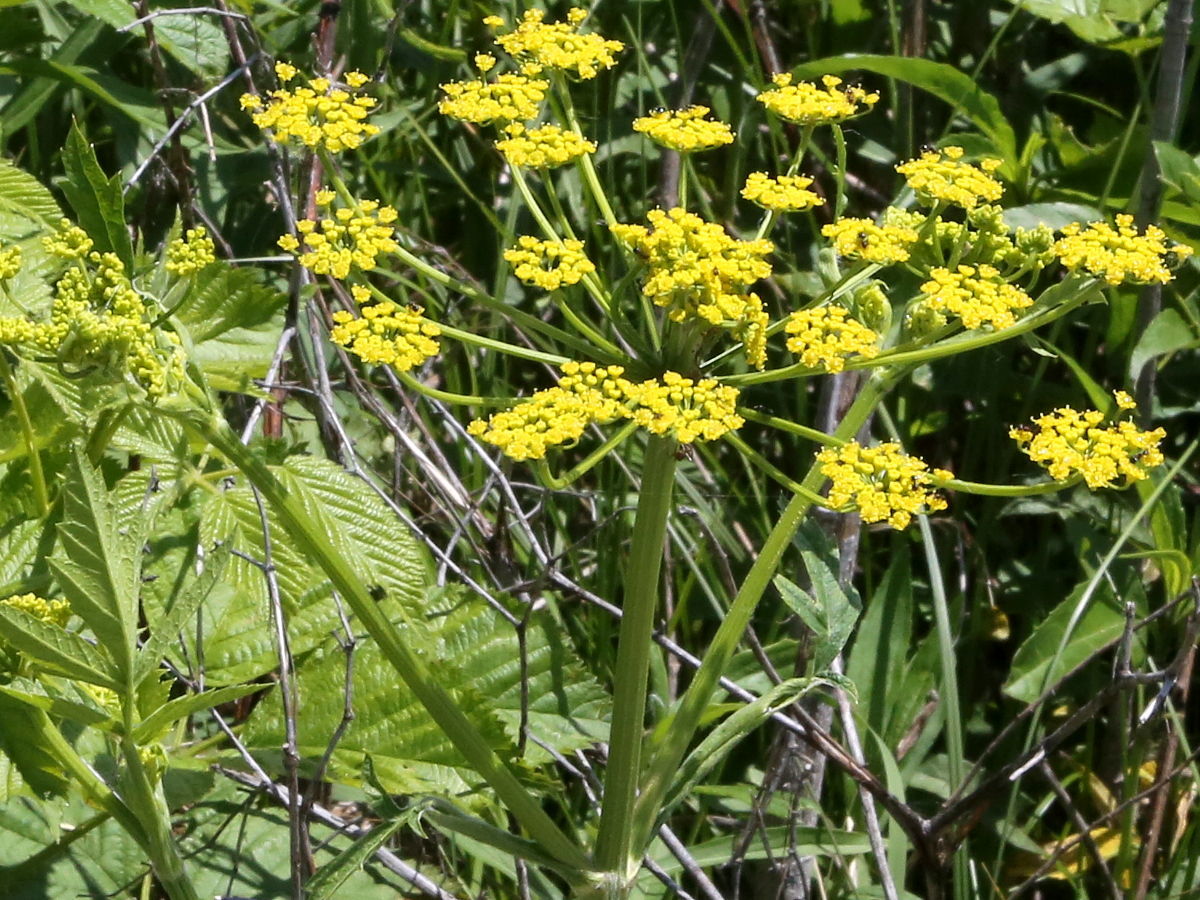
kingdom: Plantae
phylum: Tracheophyta
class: Magnoliopsida
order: Apiales
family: Apiaceae
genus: Pastinaca
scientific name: Pastinaca sativa
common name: Wild parsnip
